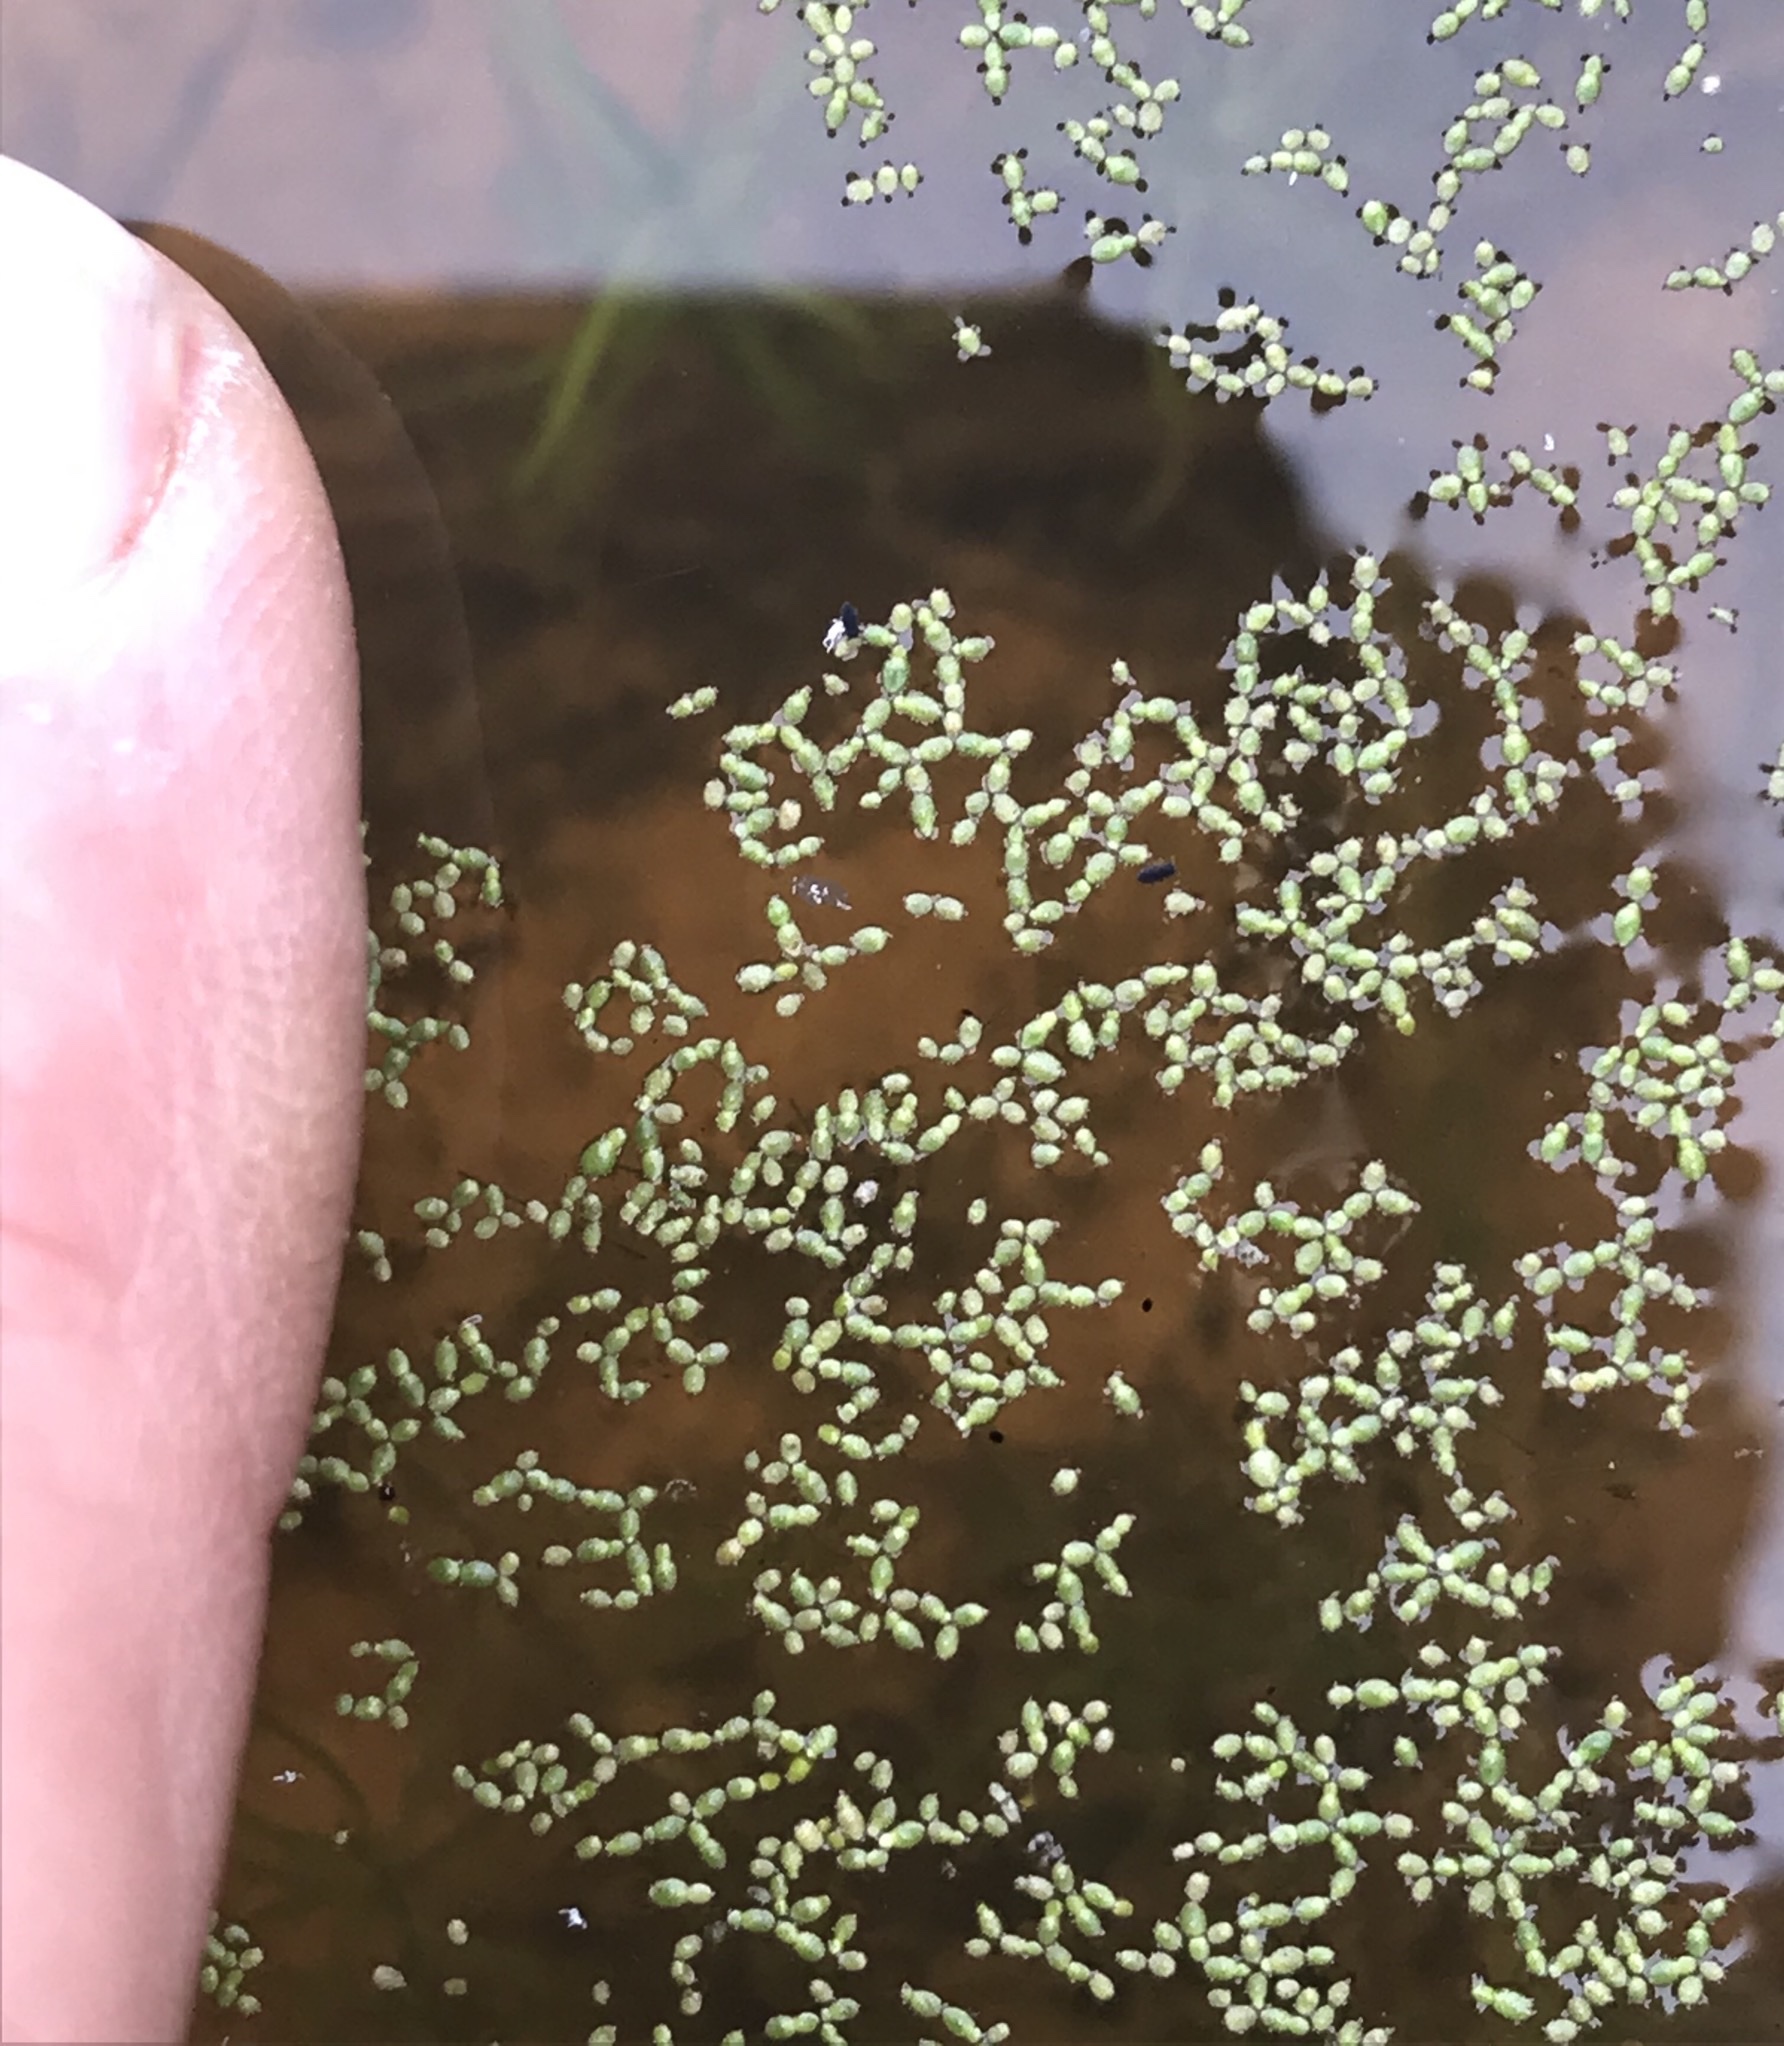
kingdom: Plantae
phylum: Tracheophyta
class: Liliopsida
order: Alismatales
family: Araceae
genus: Wolffia
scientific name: Wolffia brasiliensis
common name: Brazilian watermeal
